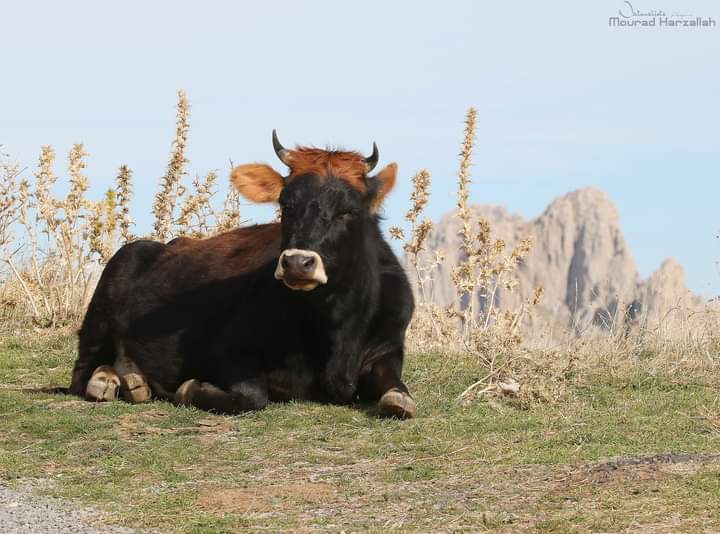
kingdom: Animalia
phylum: Chordata
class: Mammalia
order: Artiodactyla
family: Bovidae
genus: Bos
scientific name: Bos taurus
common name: Domesticated cattle
